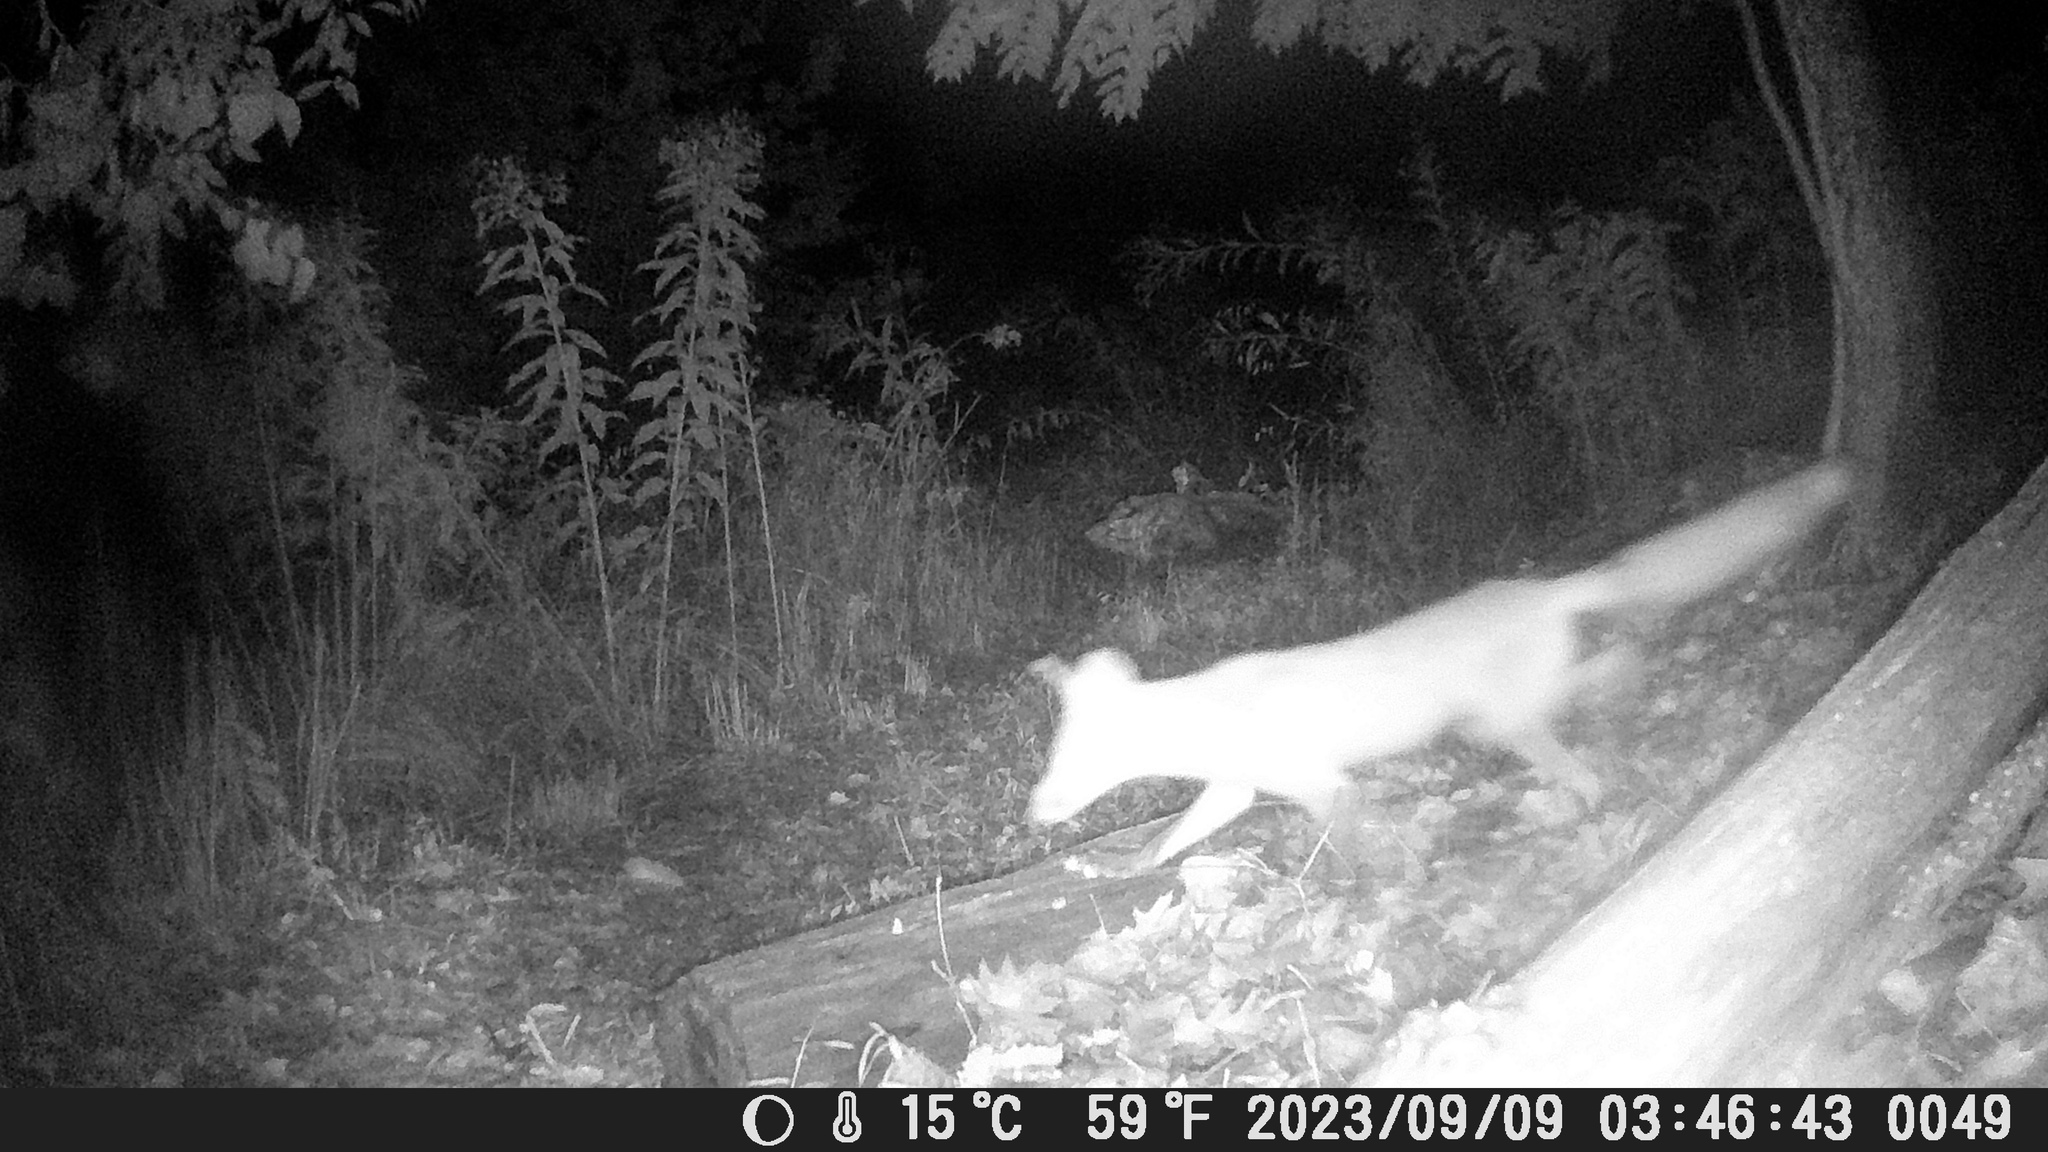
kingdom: Animalia
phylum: Chordata
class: Mammalia
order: Carnivora
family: Canidae
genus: Vulpes
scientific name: Vulpes vulpes
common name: Red fox
